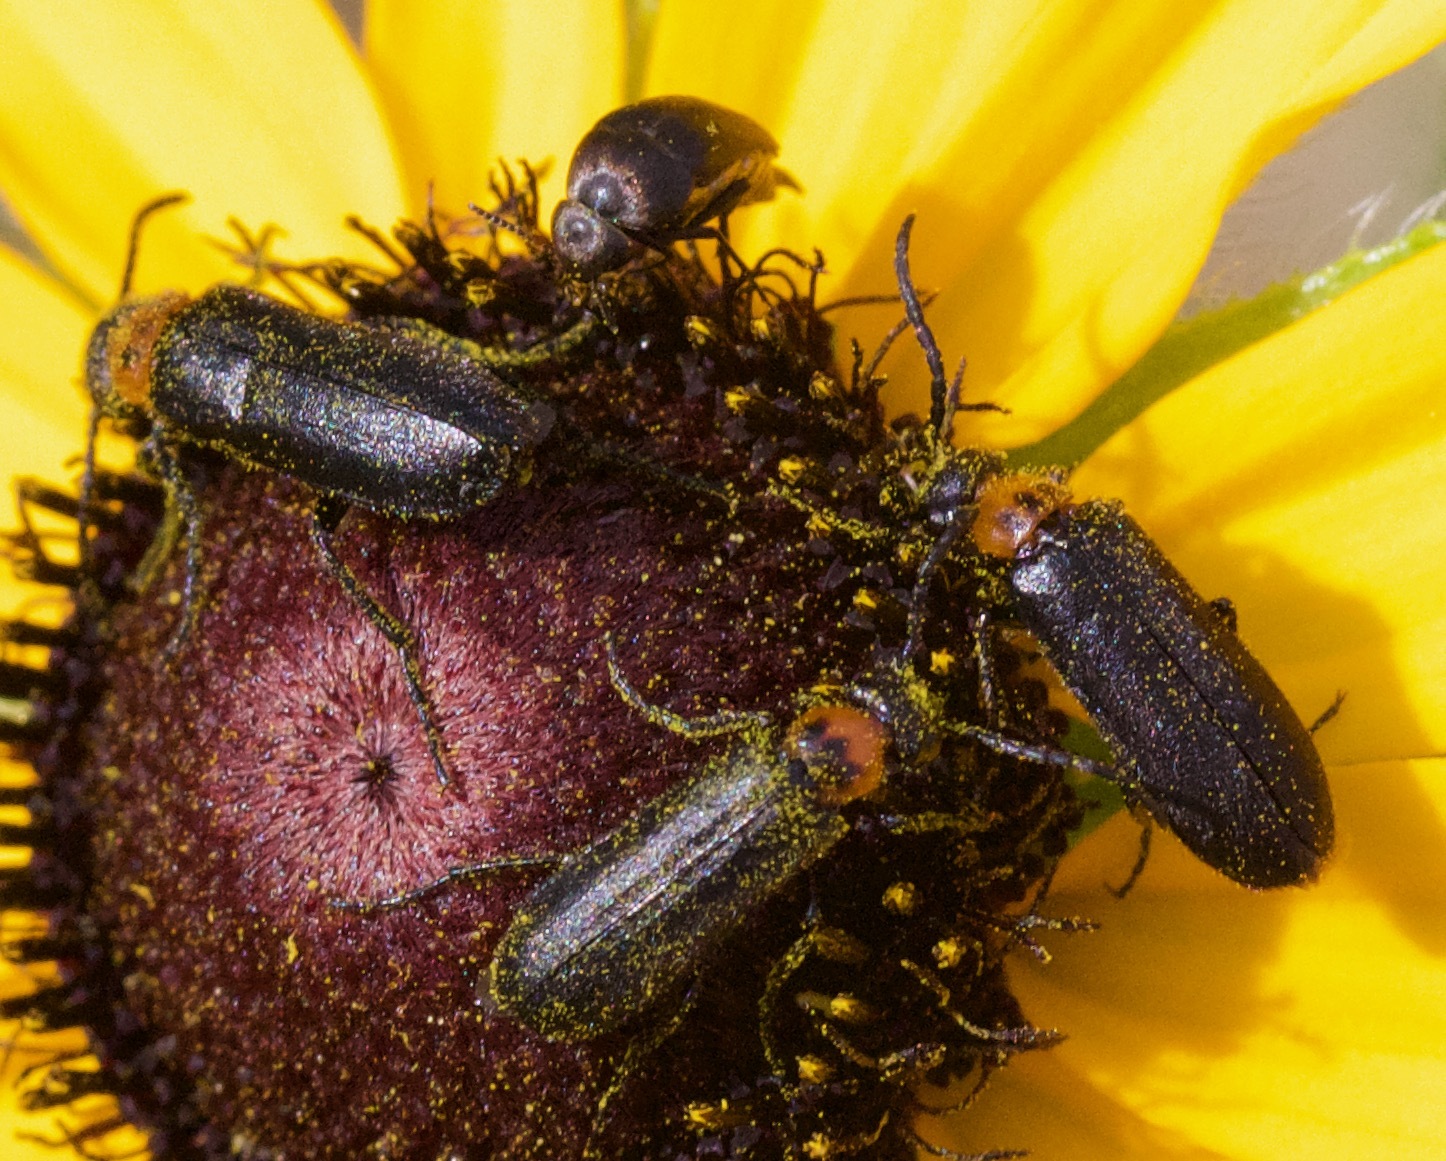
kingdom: Animalia
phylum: Arthropoda
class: Insecta
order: Coleoptera
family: Meloidae
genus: Nemognatha
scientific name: Nemognatha nemorensis
